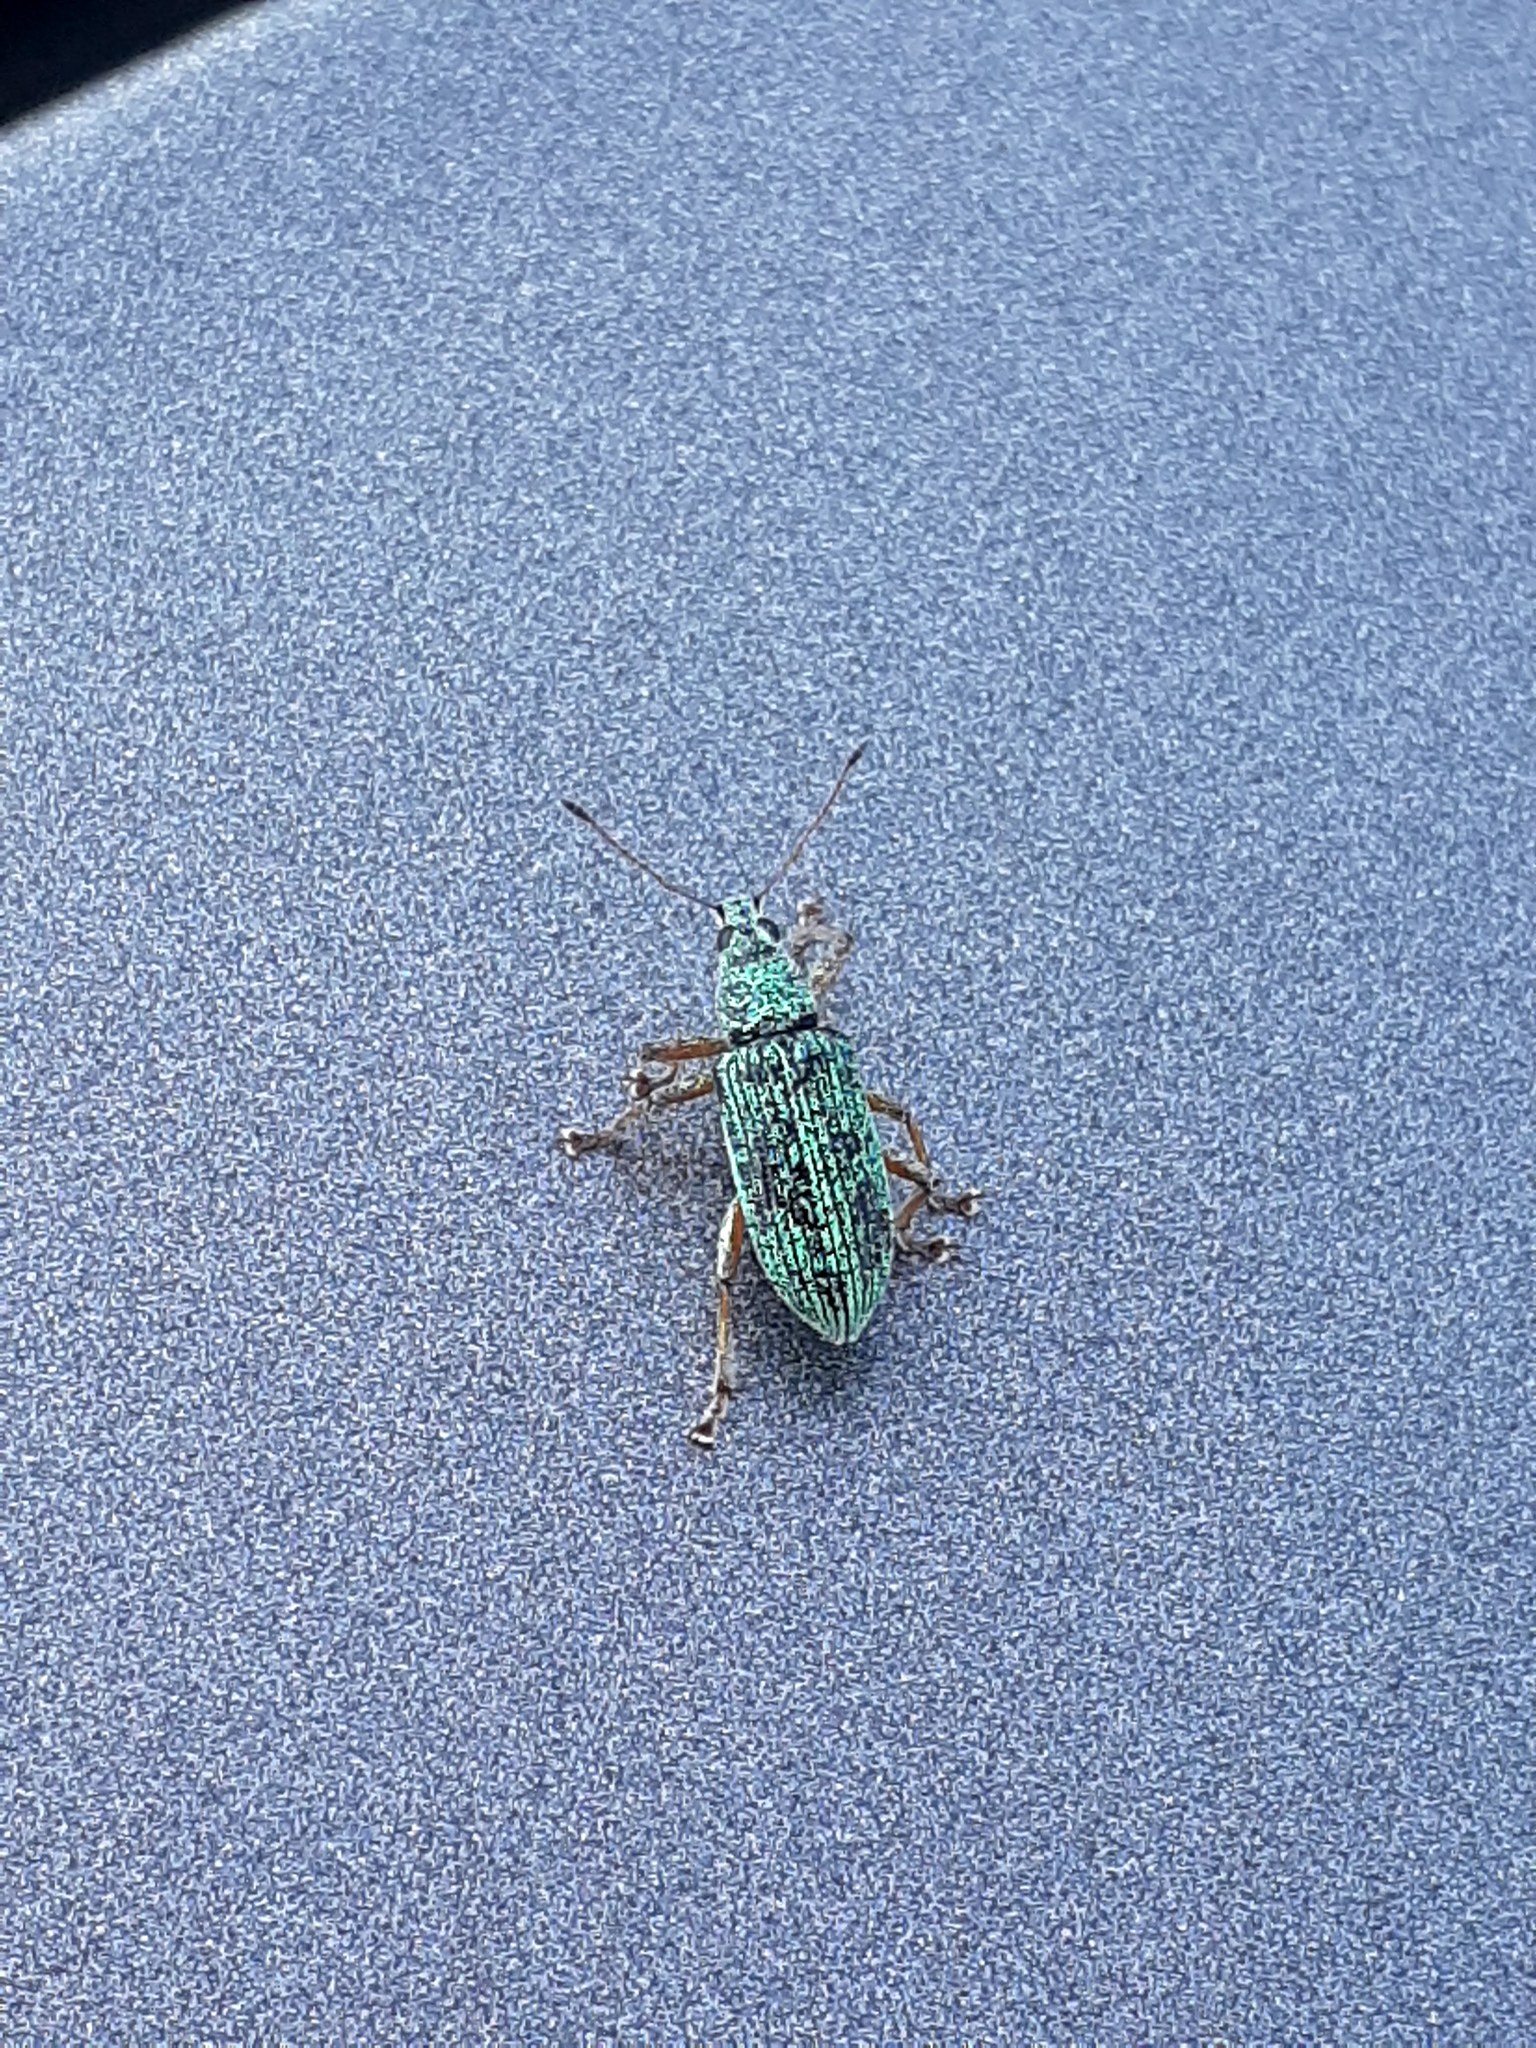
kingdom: Animalia
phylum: Arthropoda
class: Insecta
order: Coleoptera
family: Curculionidae
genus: Polydrusus
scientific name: Polydrusus formosus
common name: Weevil
